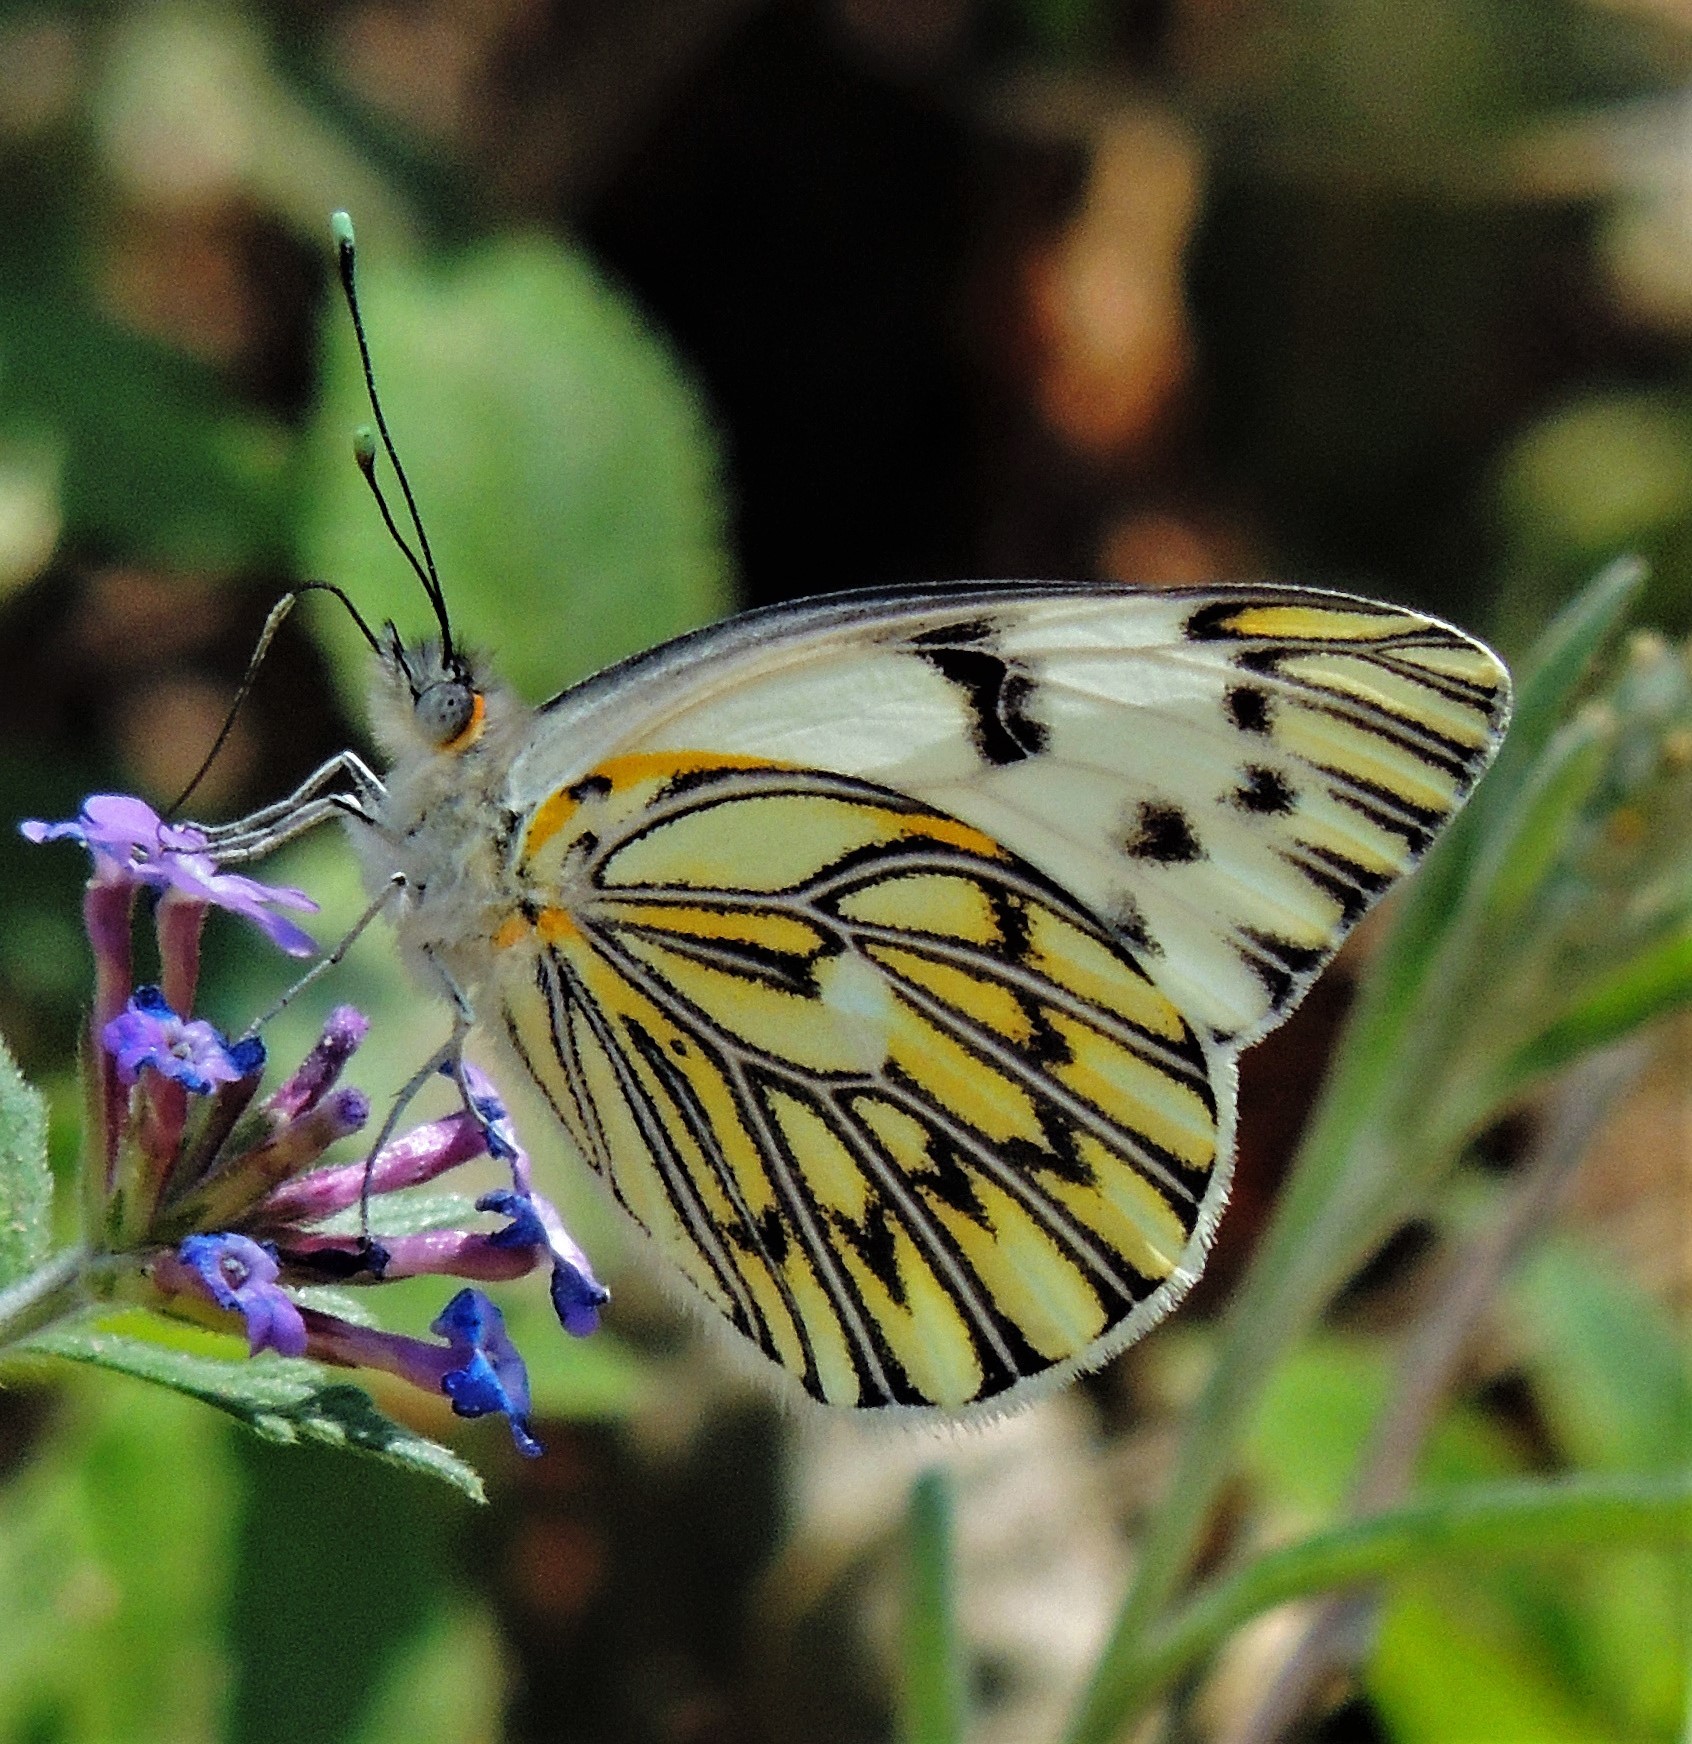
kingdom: Animalia
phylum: Arthropoda
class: Insecta
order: Lepidoptera
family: Pieridae
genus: Tatochila
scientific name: Tatochila autodice
